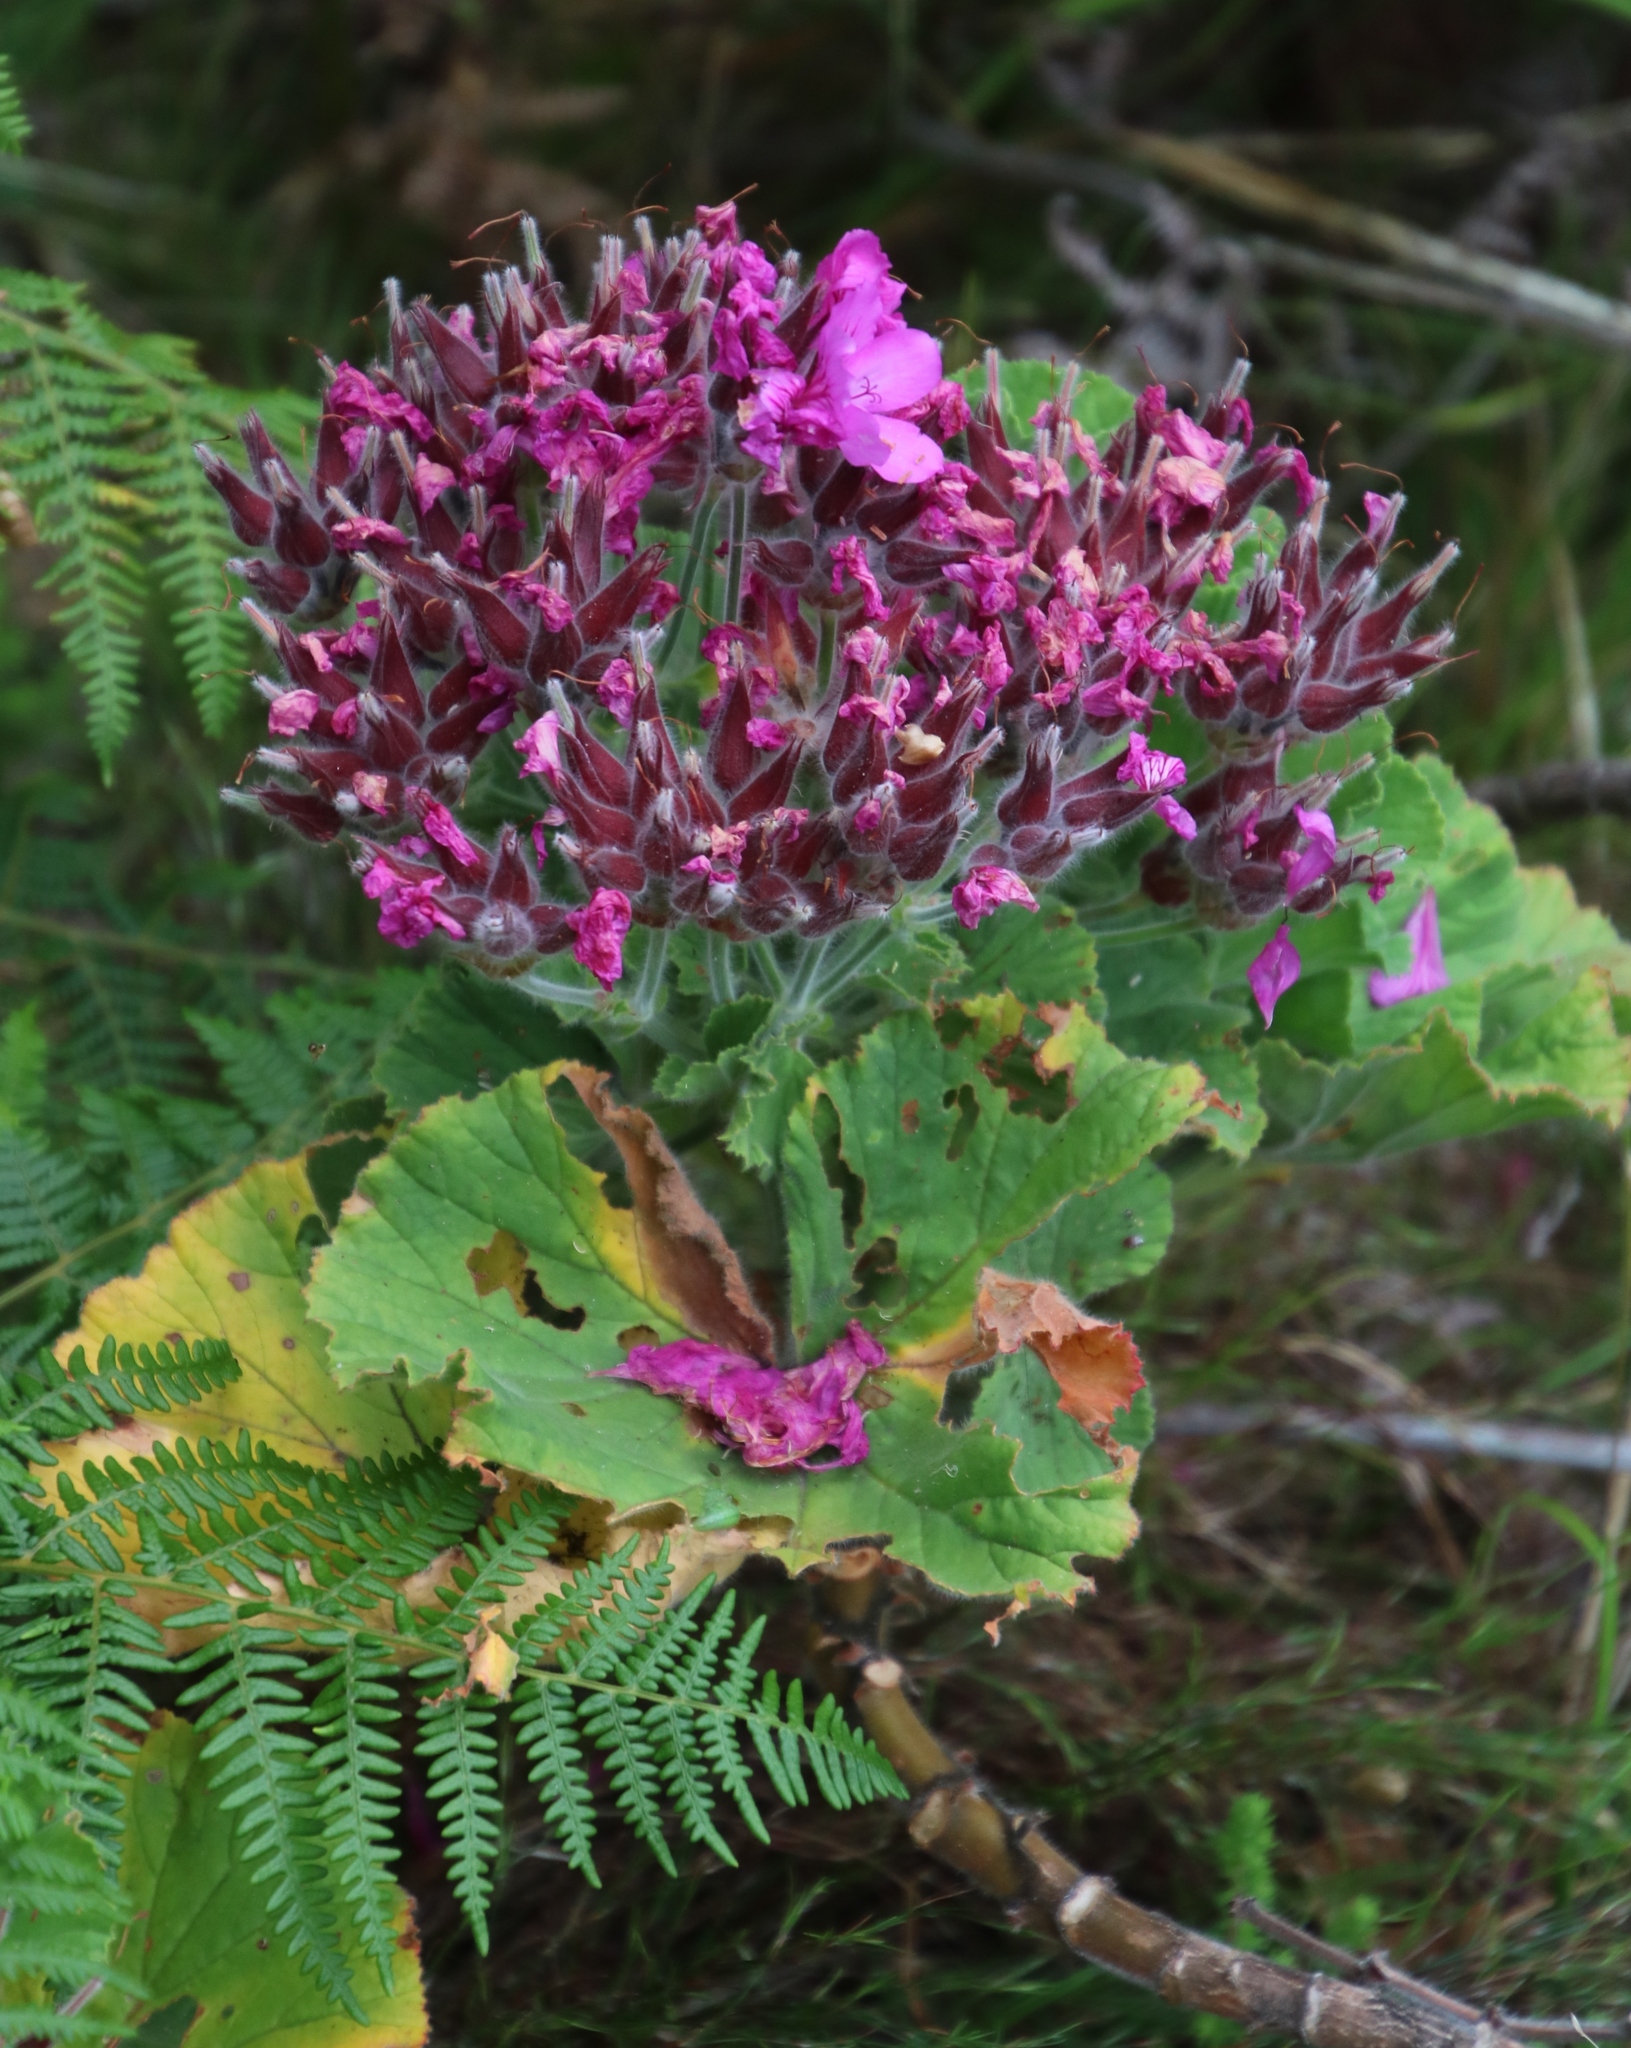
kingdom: Plantae
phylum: Tracheophyta
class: Magnoliopsida
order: Geraniales
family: Geraniaceae
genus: Pelargonium
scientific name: Pelargonium cucullatum
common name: Tree pelargonium
